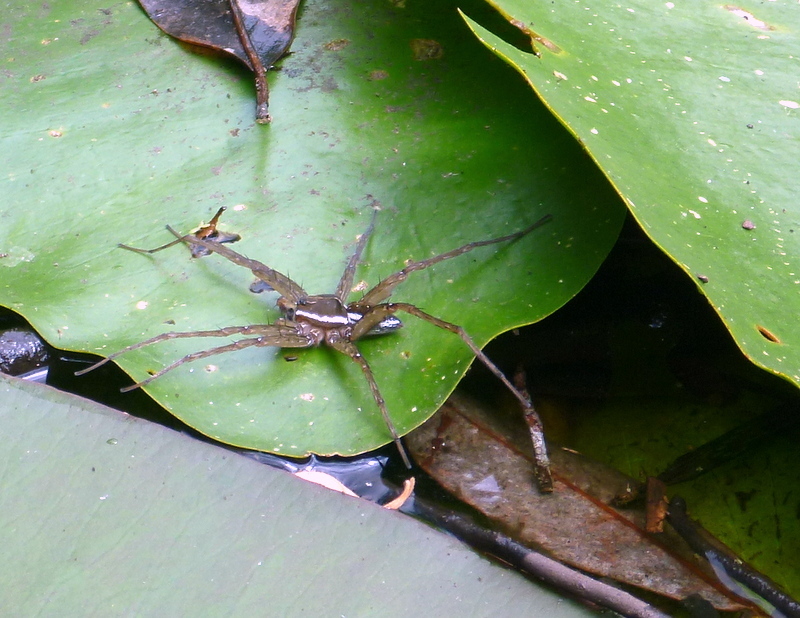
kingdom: Animalia
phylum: Arthropoda
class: Arachnida
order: Araneae
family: Pisauridae
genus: Dolomedes
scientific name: Dolomedes triton
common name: Six-spotted fishing spider
